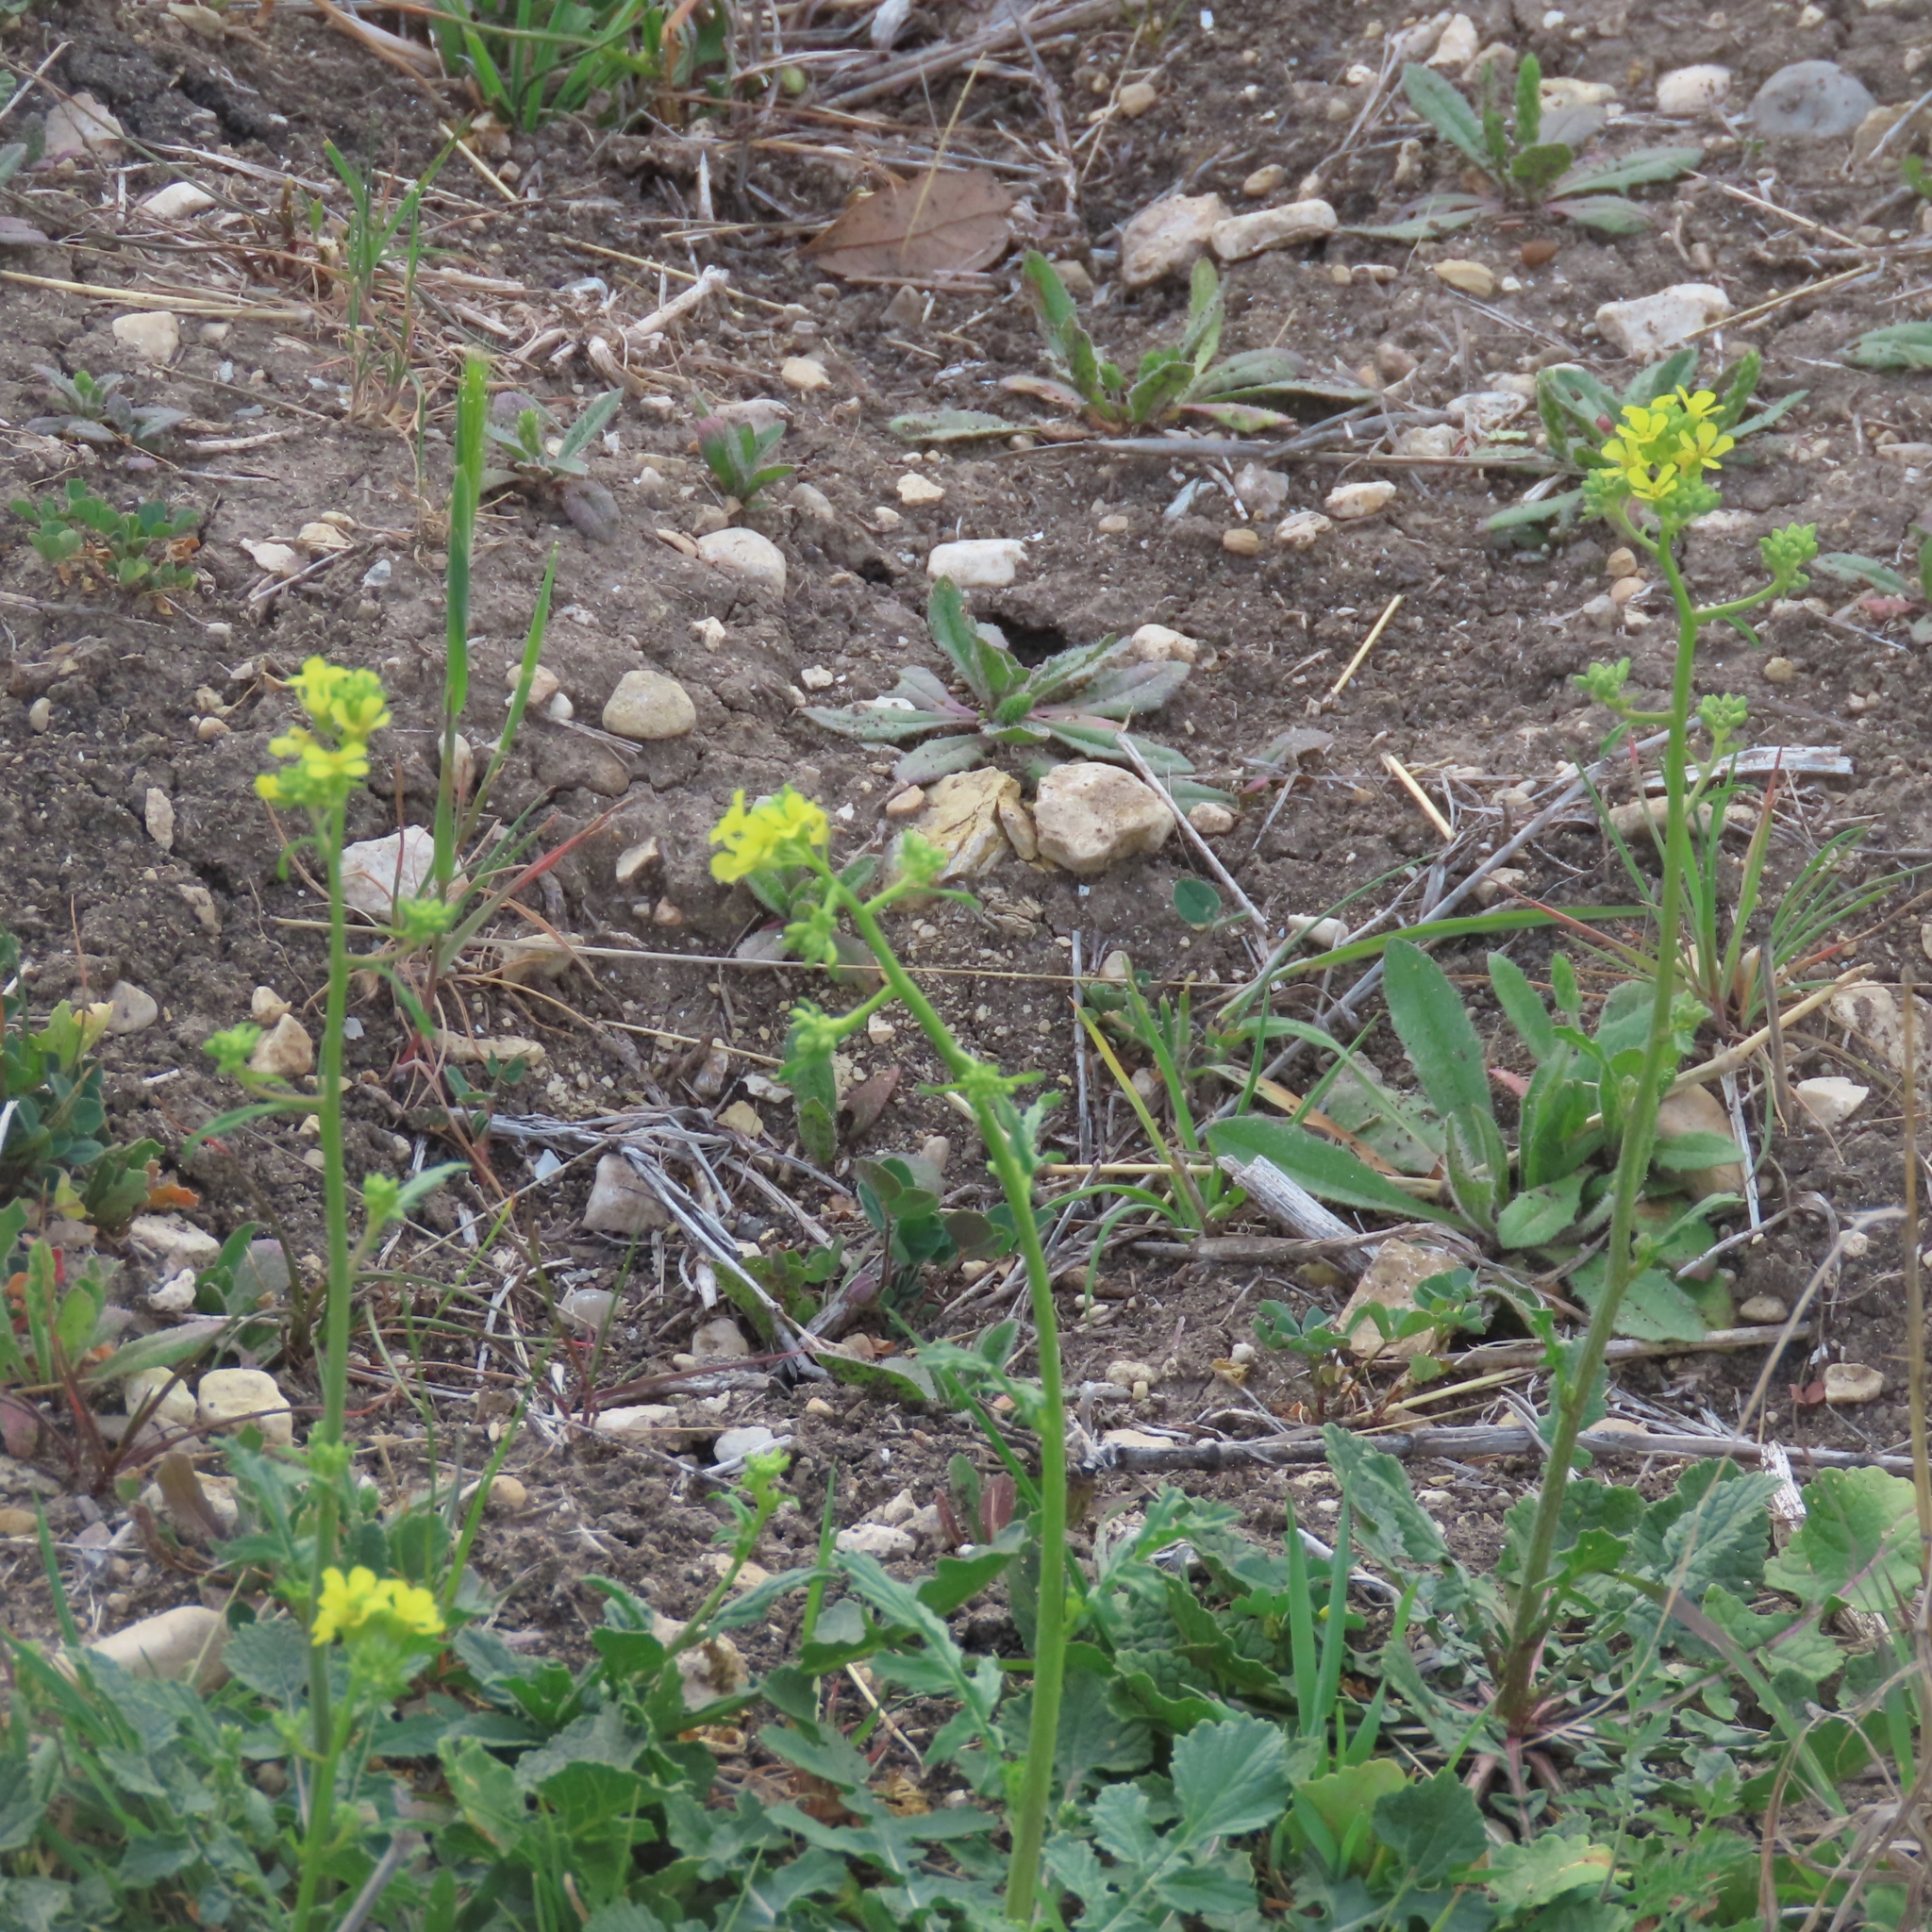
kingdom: Plantae
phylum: Tracheophyta
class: Magnoliopsida
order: Brassicales
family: Brassicaceae
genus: Rapistrum
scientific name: Rapistrum rugosum
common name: Annual bastardcabbage
